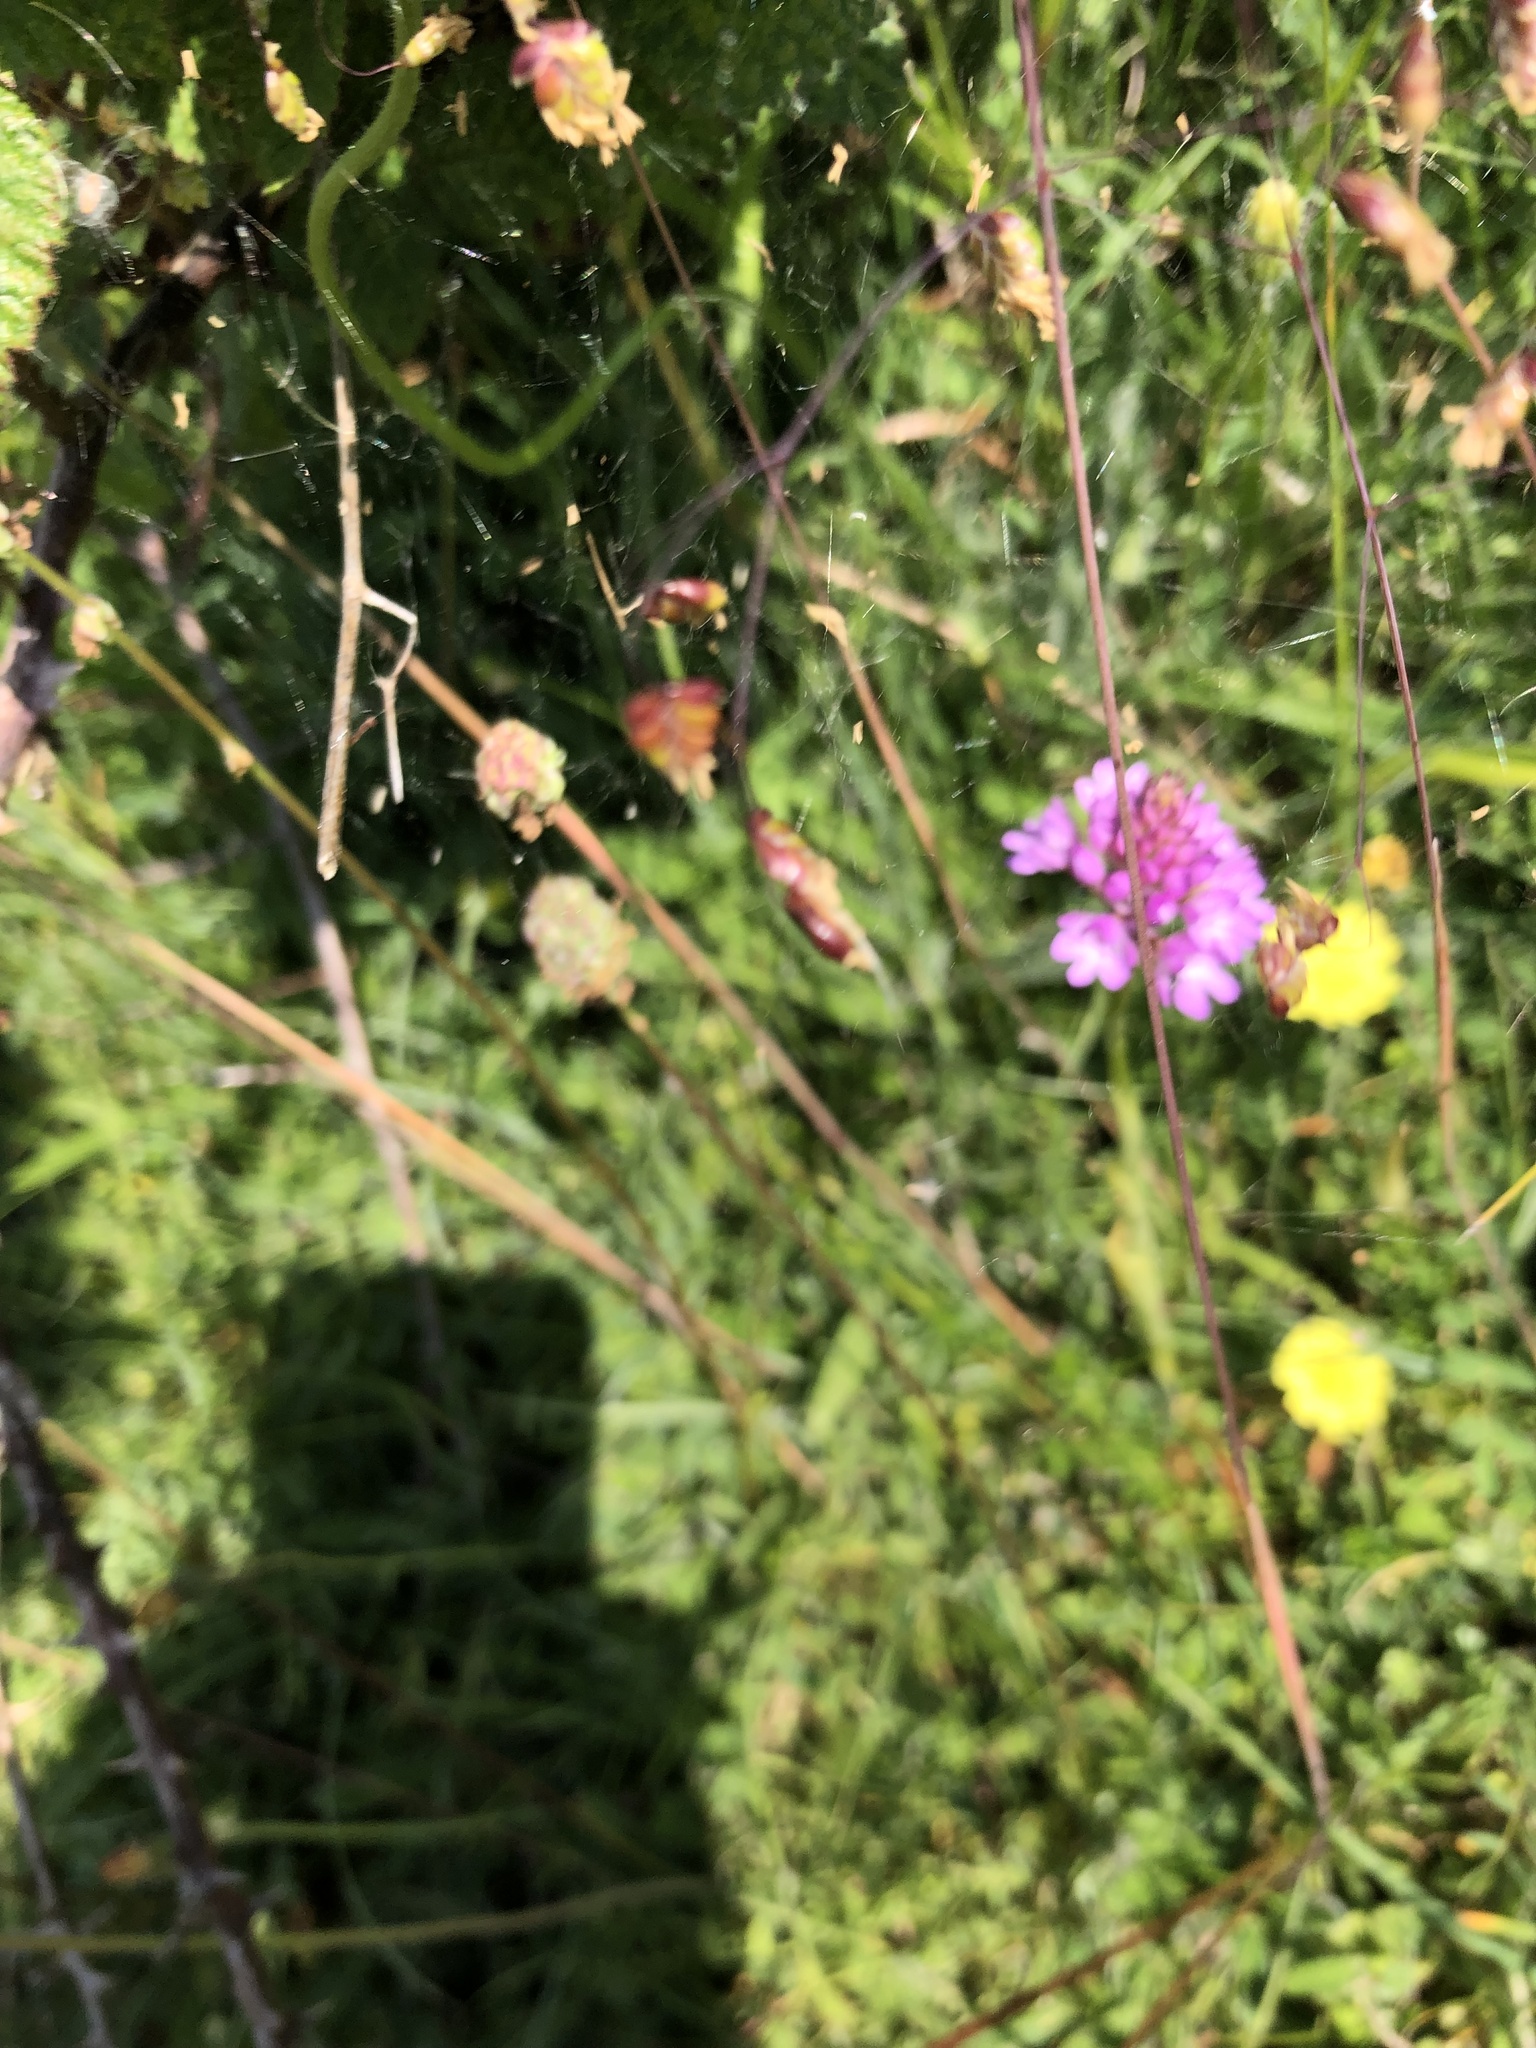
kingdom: Plantae
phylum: Tracheophyta
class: Liliopsida
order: Poales
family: Poaceae
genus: Briza
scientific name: Briza media
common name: Quaking grass
